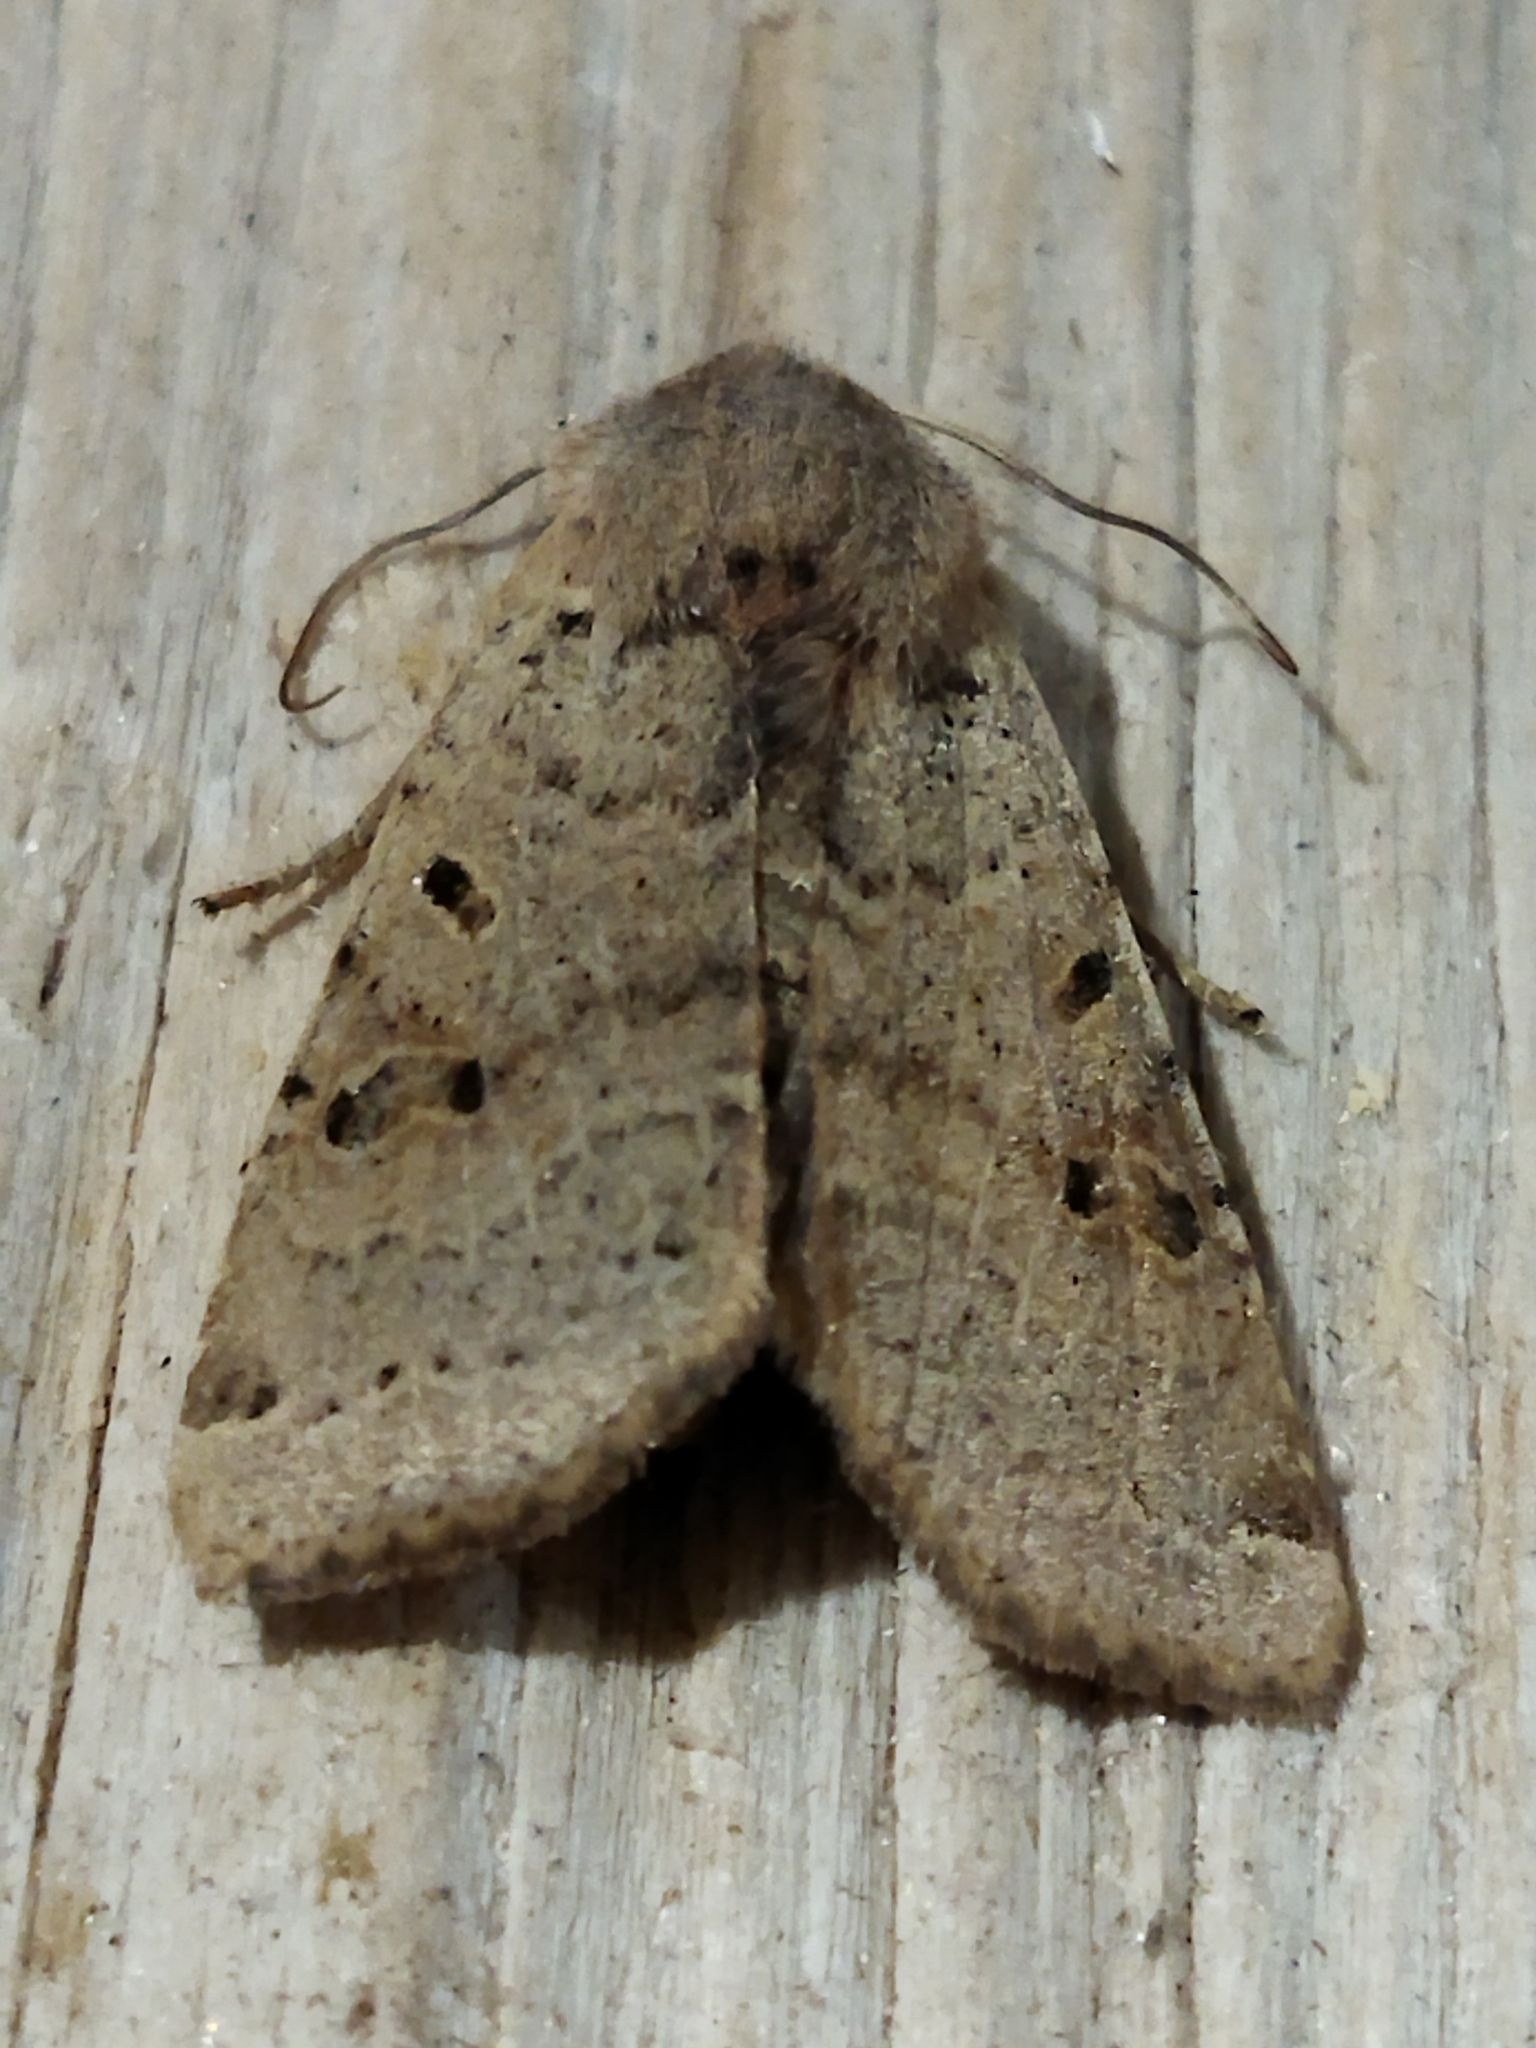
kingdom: Animalia
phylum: Arthropoda
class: Insecta
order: Lepidoptera
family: Noctuidae
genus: Agrochola
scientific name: Agrochola lychnidis
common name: Beaded chestnut
